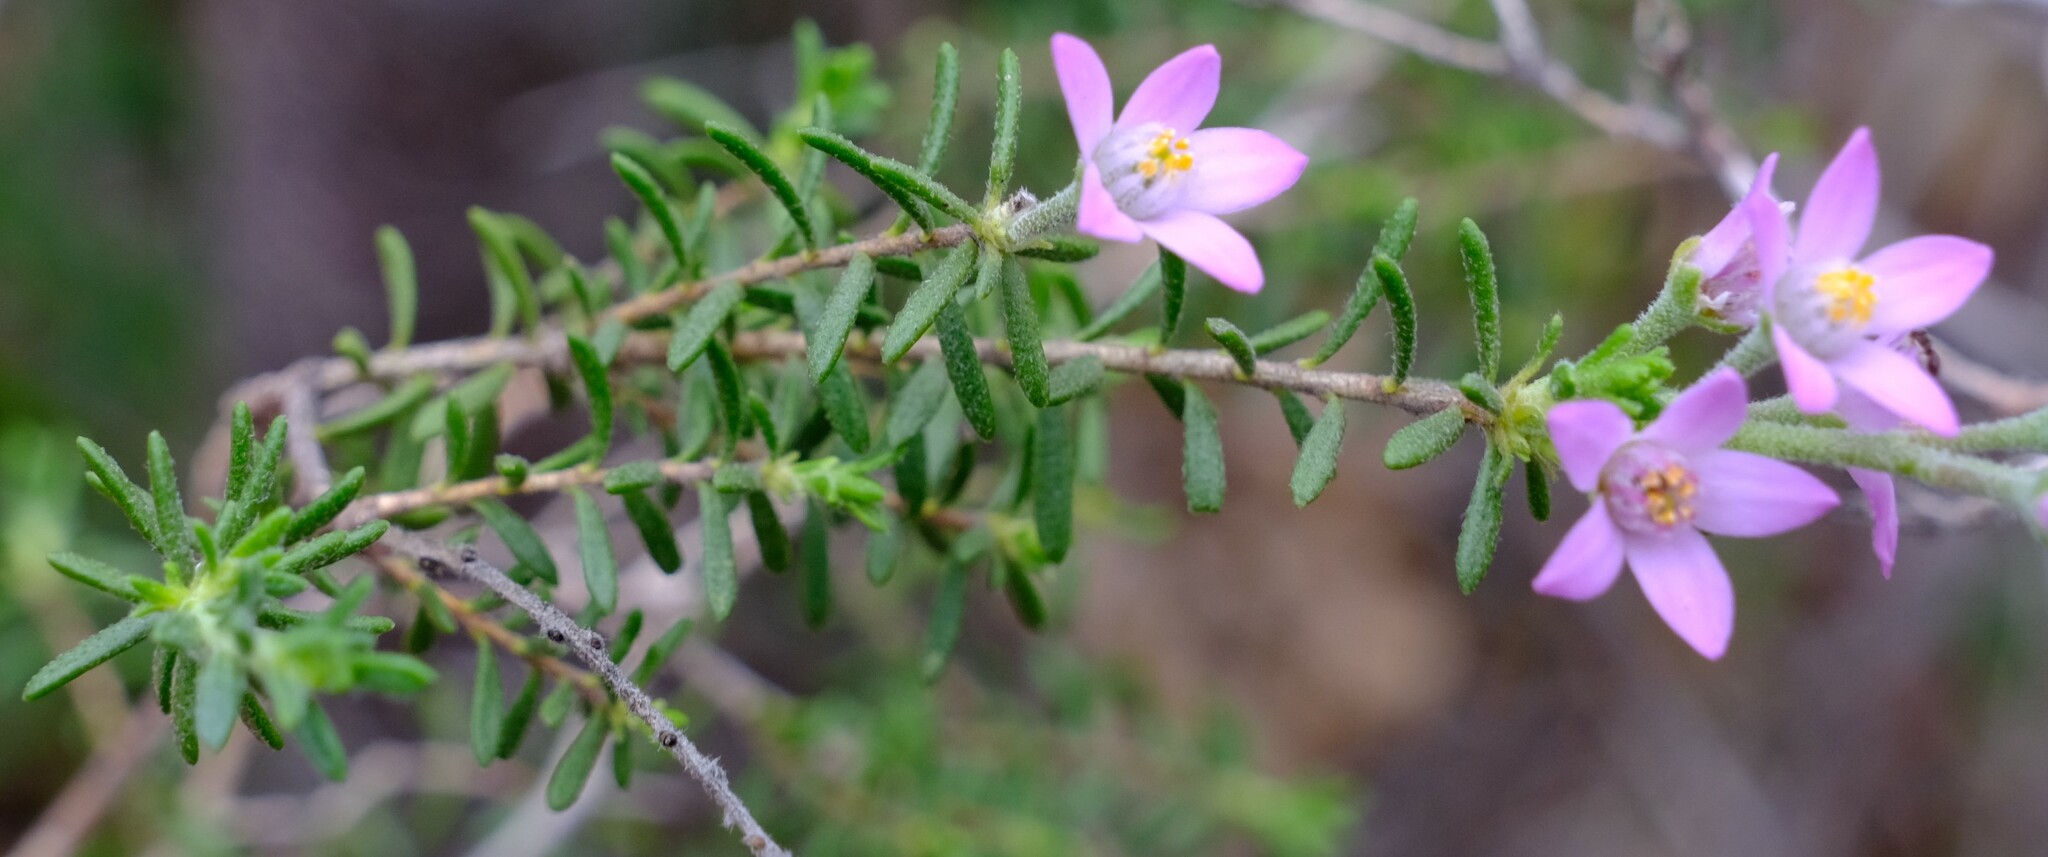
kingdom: Plantae
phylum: Tracheophyta
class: Magnoliopsida
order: Sapindales
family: Rutaceae
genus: Philotheca
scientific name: Philotheca spicata
